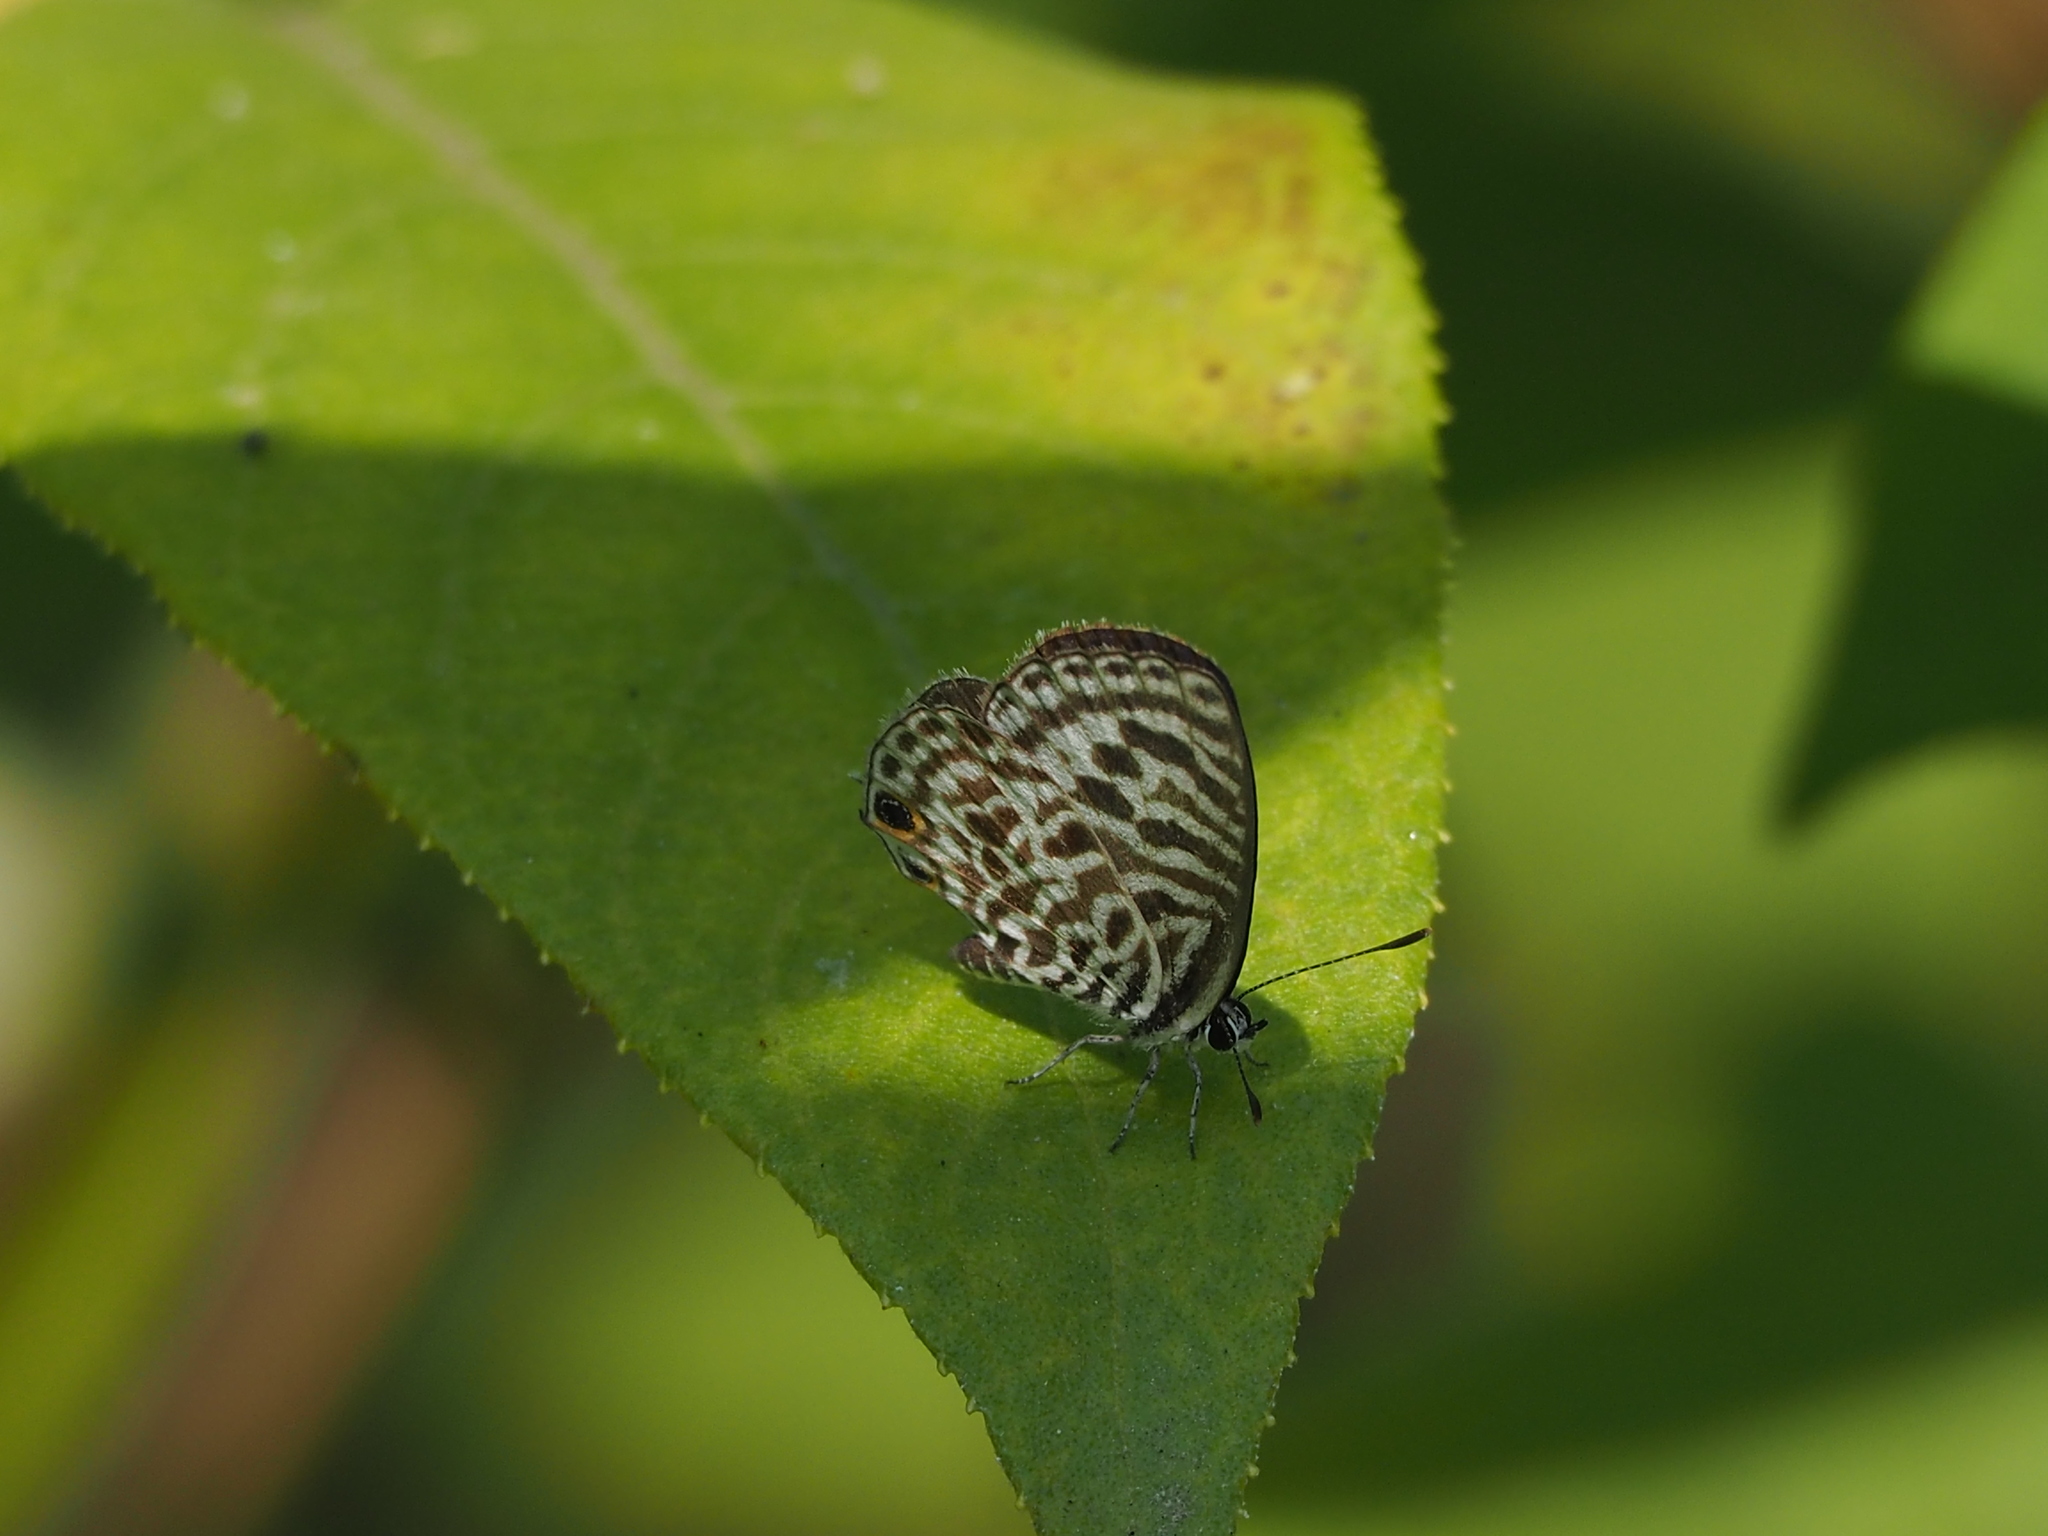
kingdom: Animalia
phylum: Arthropoda
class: Insecta
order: Lepidoptera
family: Lycaenidae
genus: Leptotes
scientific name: Leptotes plinius
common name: Zebra blue
